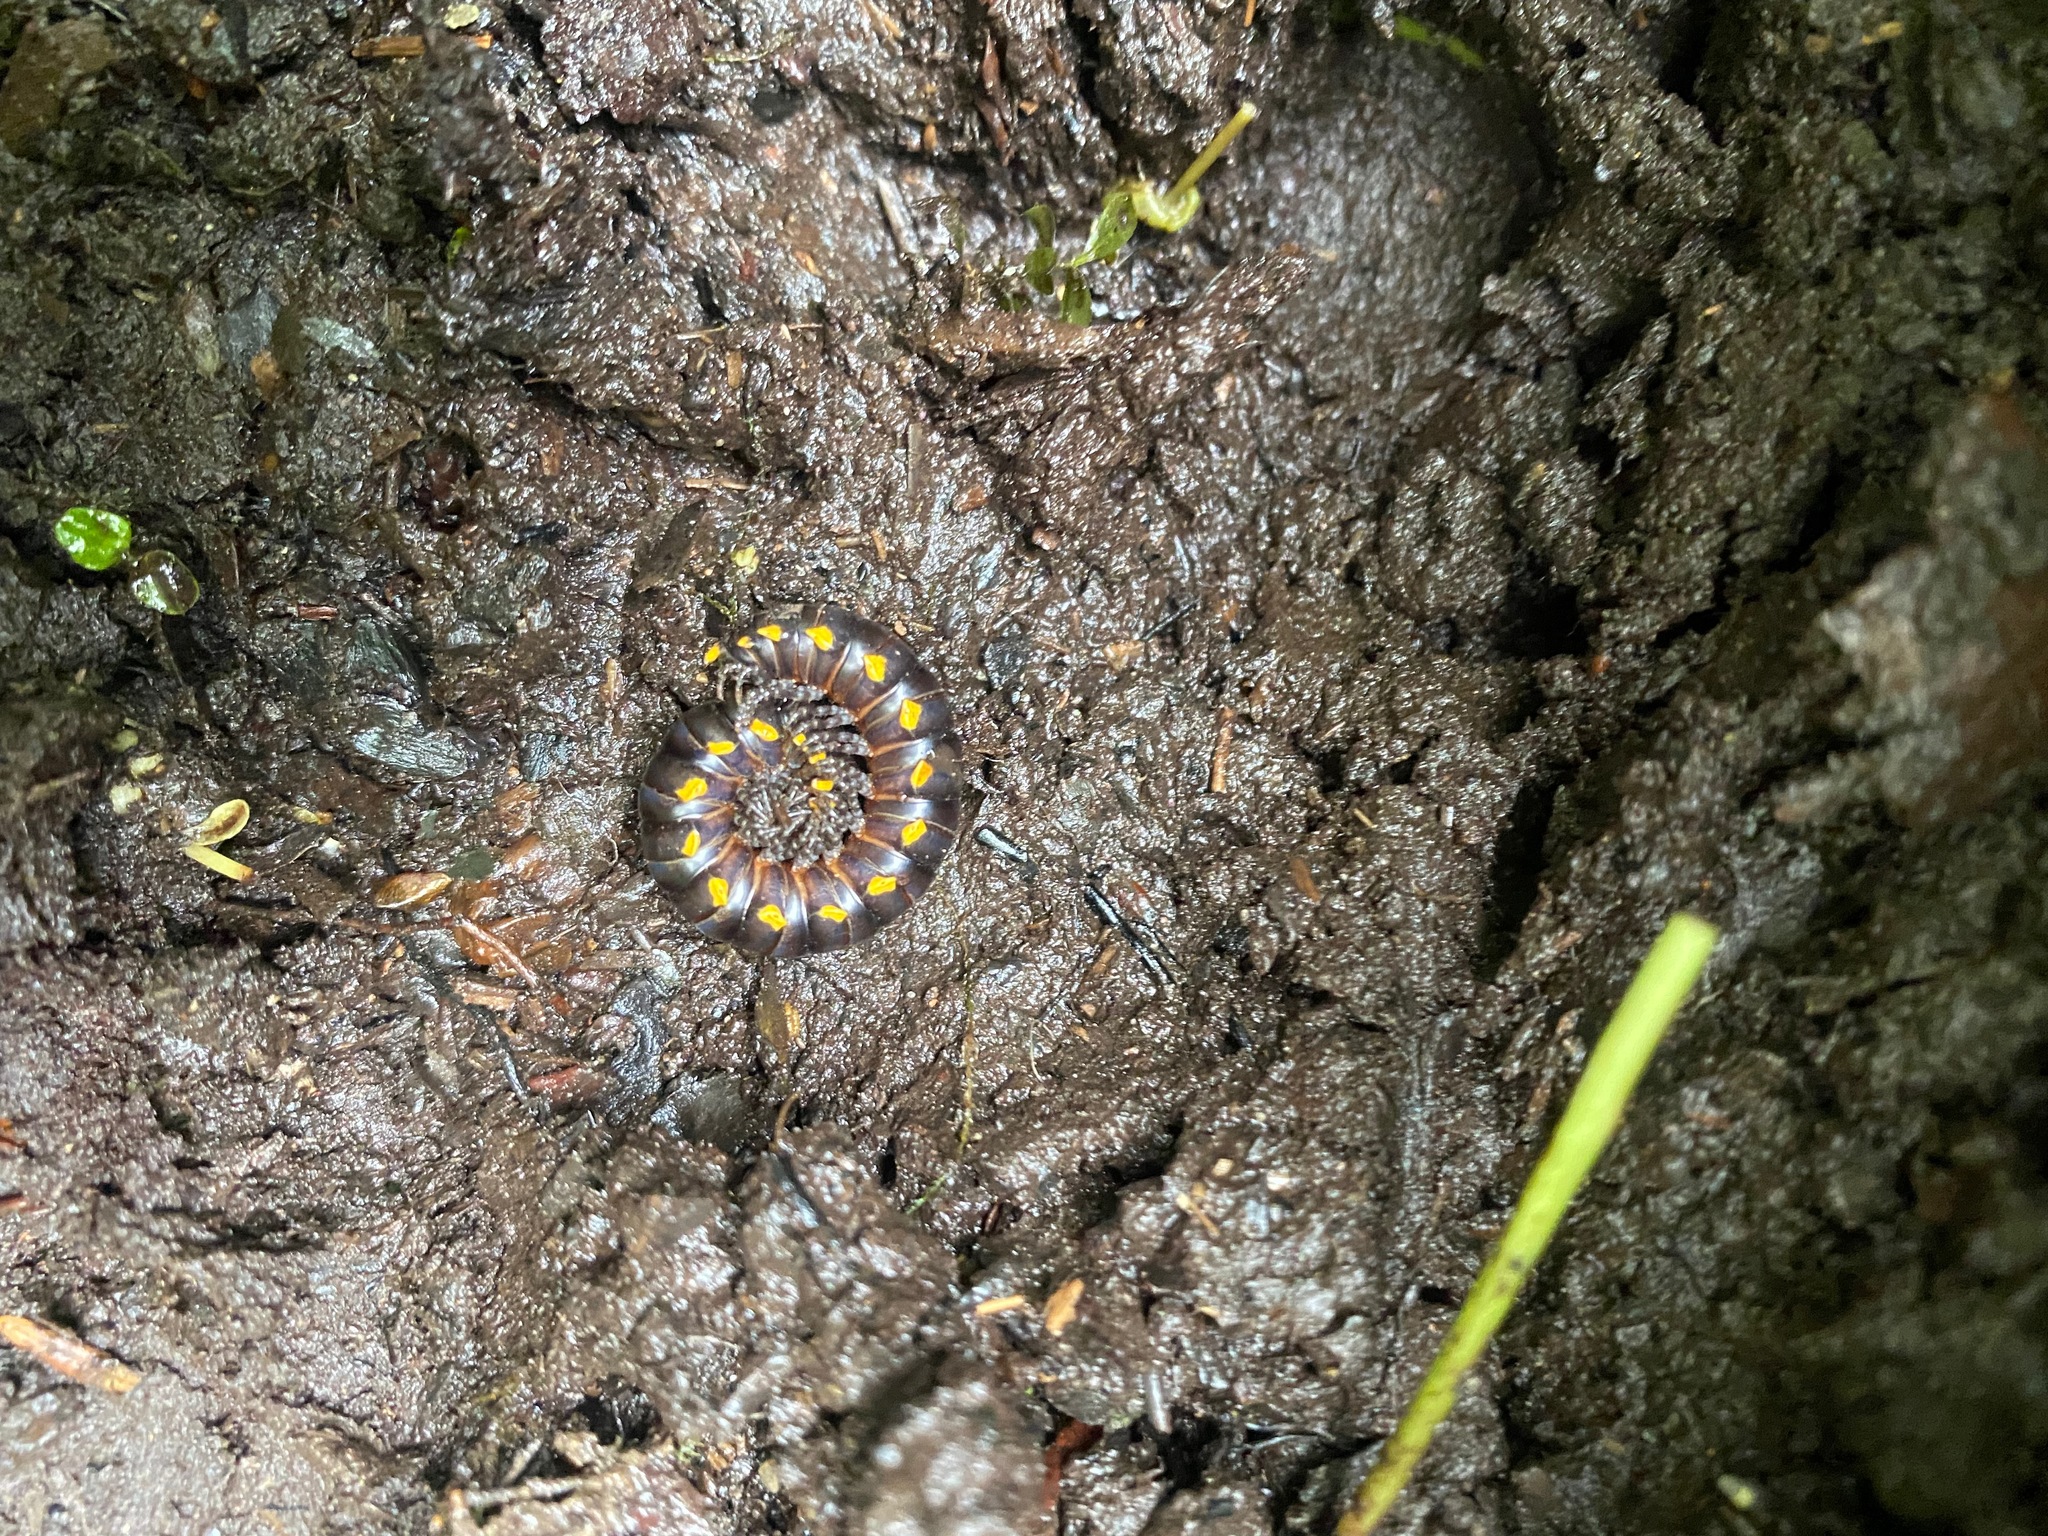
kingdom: Animalia
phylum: Arthropoda
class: Diplopoda
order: Polydesmida
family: Xystodesmidae
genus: Harpaphe
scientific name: Harpaphe haydeniana
